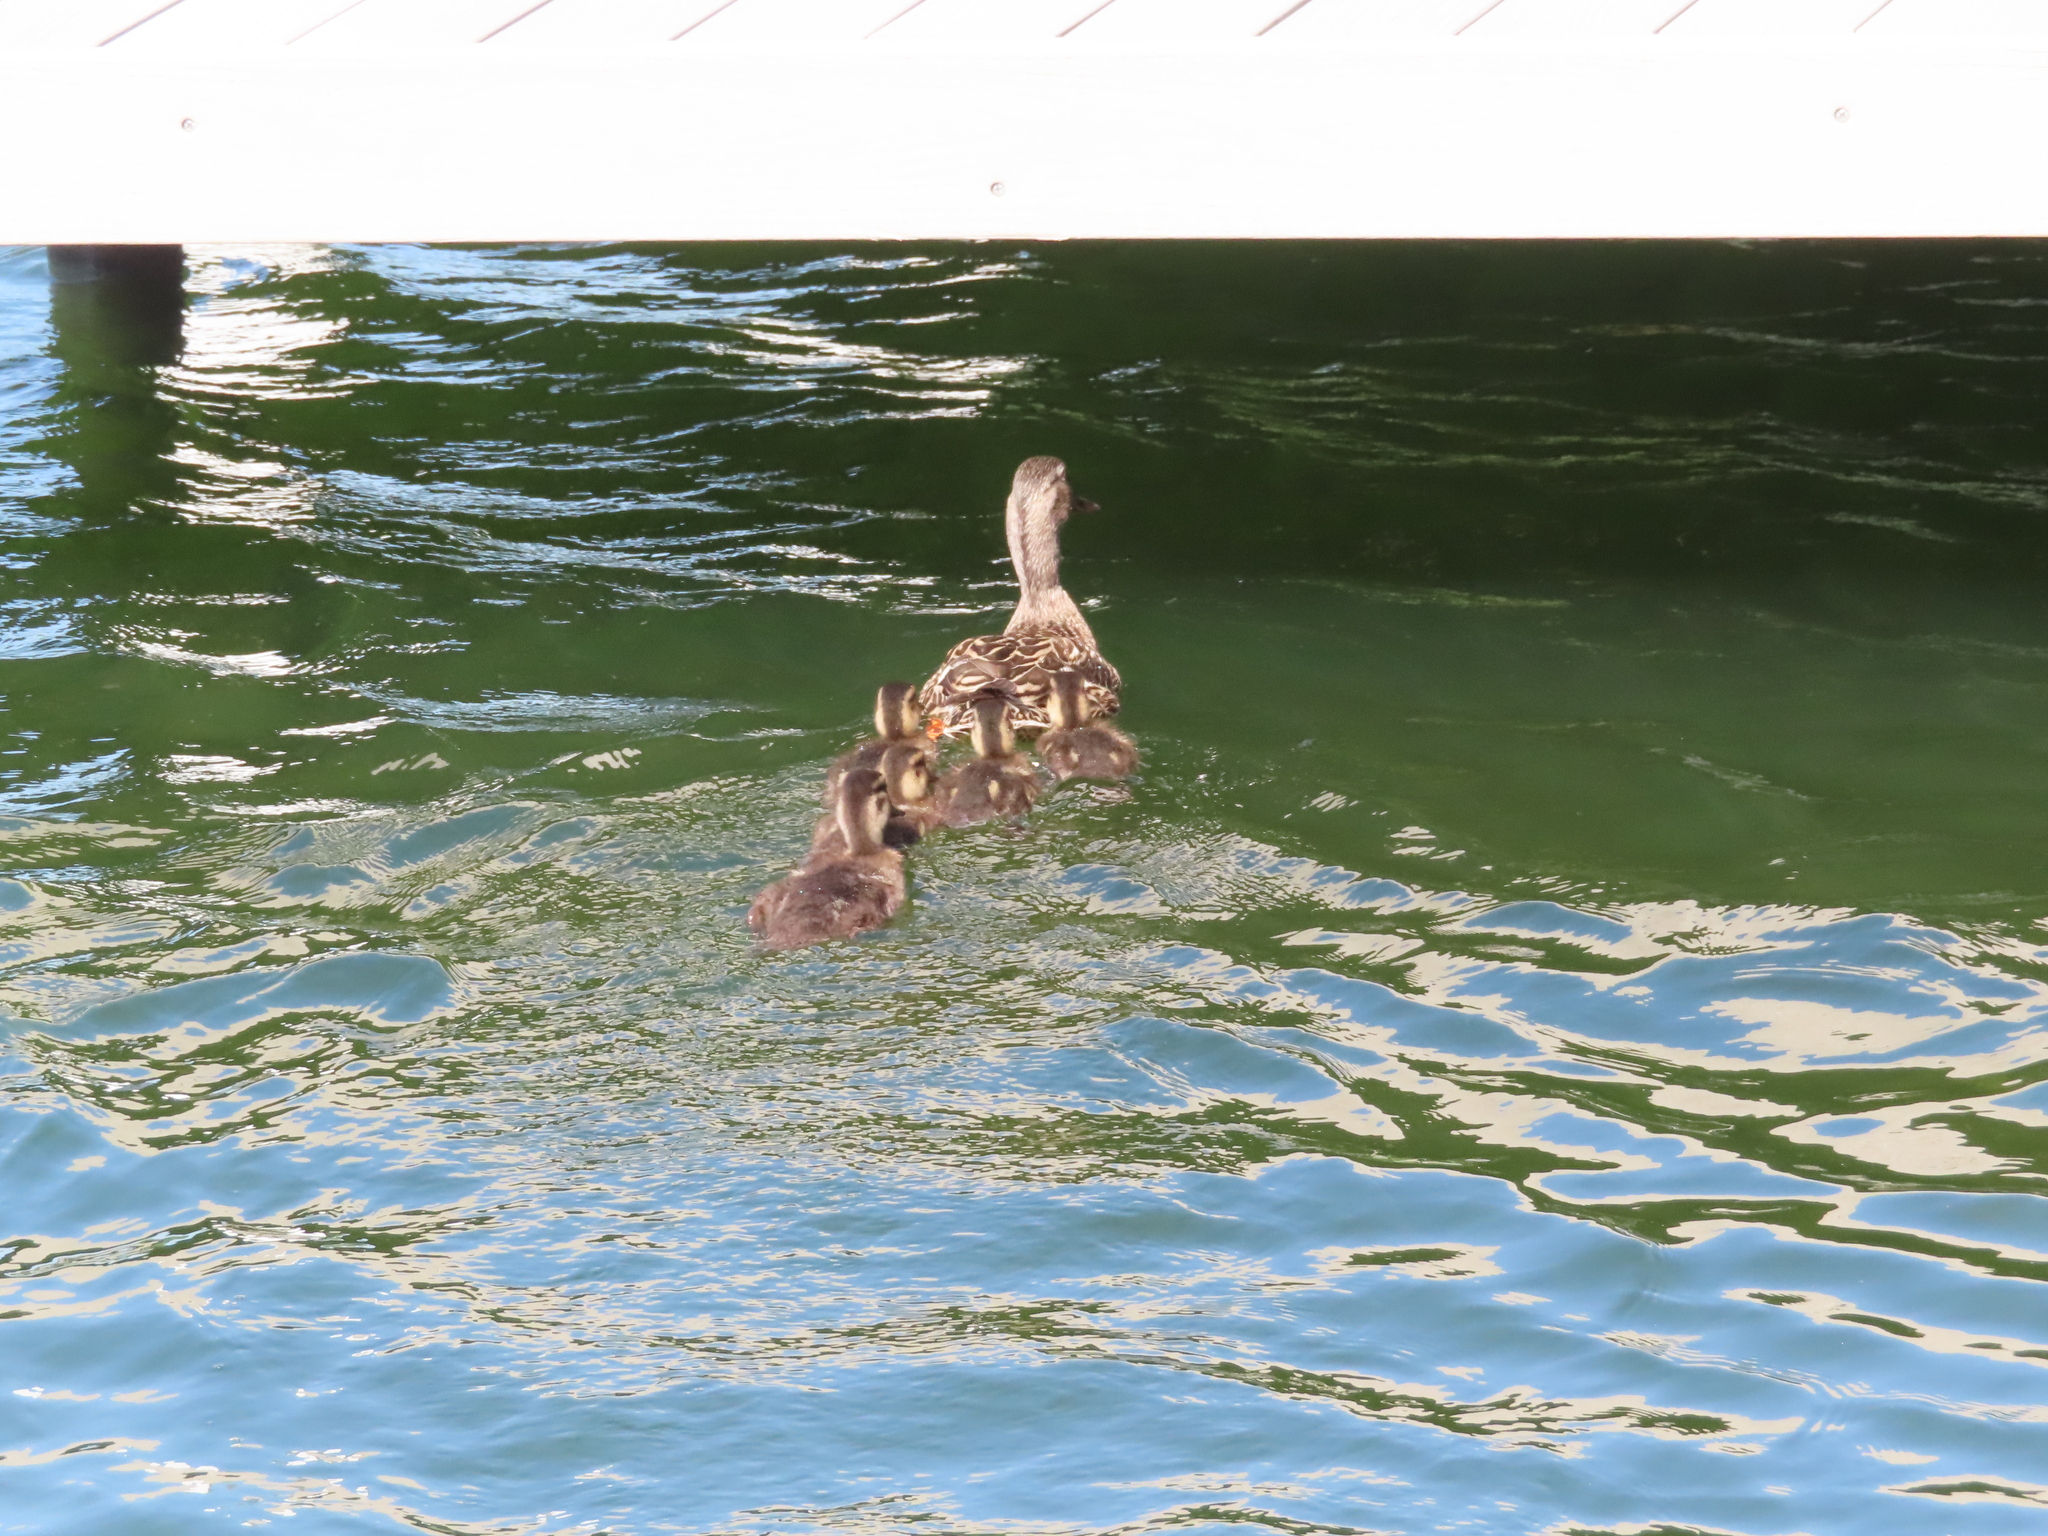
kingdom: Animalia
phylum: Chordata
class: Aves
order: Anseriformes
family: Anatidae
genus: Anas
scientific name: Anas platyrhynchos
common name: Mallard
